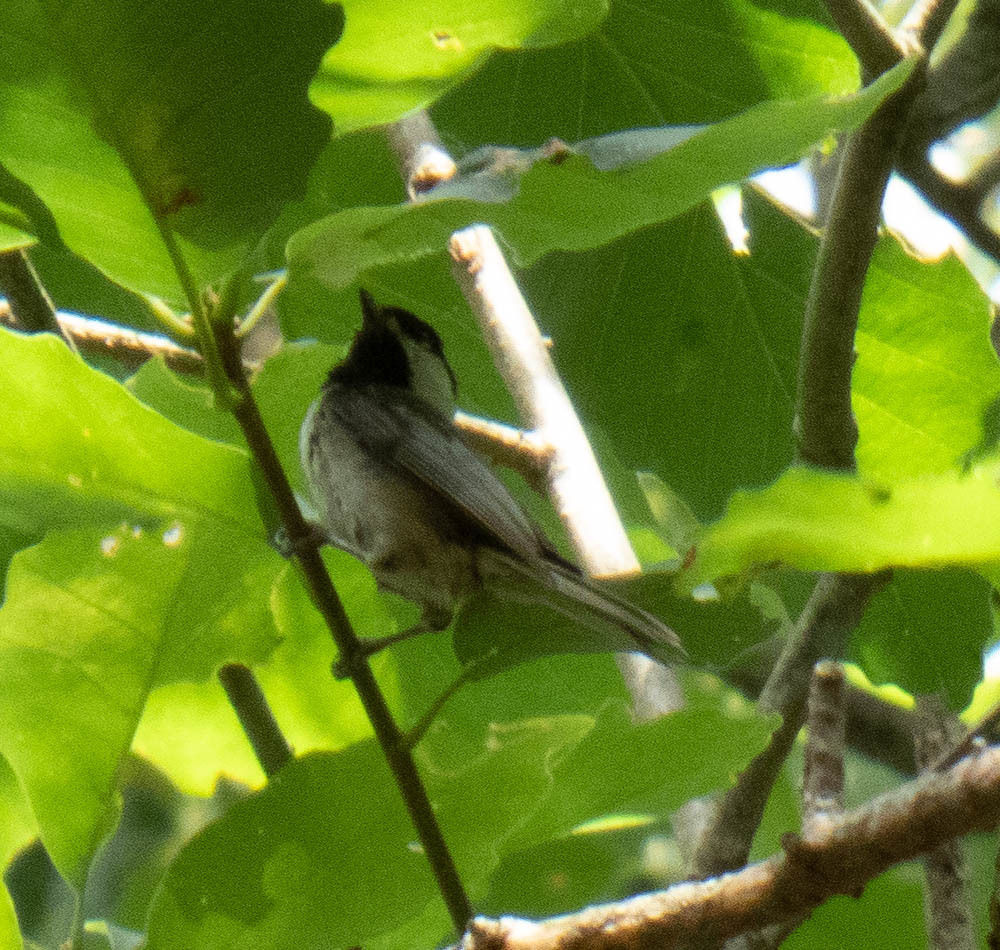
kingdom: Animalia
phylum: Chordata
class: Aves
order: Passeriformes
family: Paridae
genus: Poecile
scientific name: Poecile carolinensis
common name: Carolina chickadee
